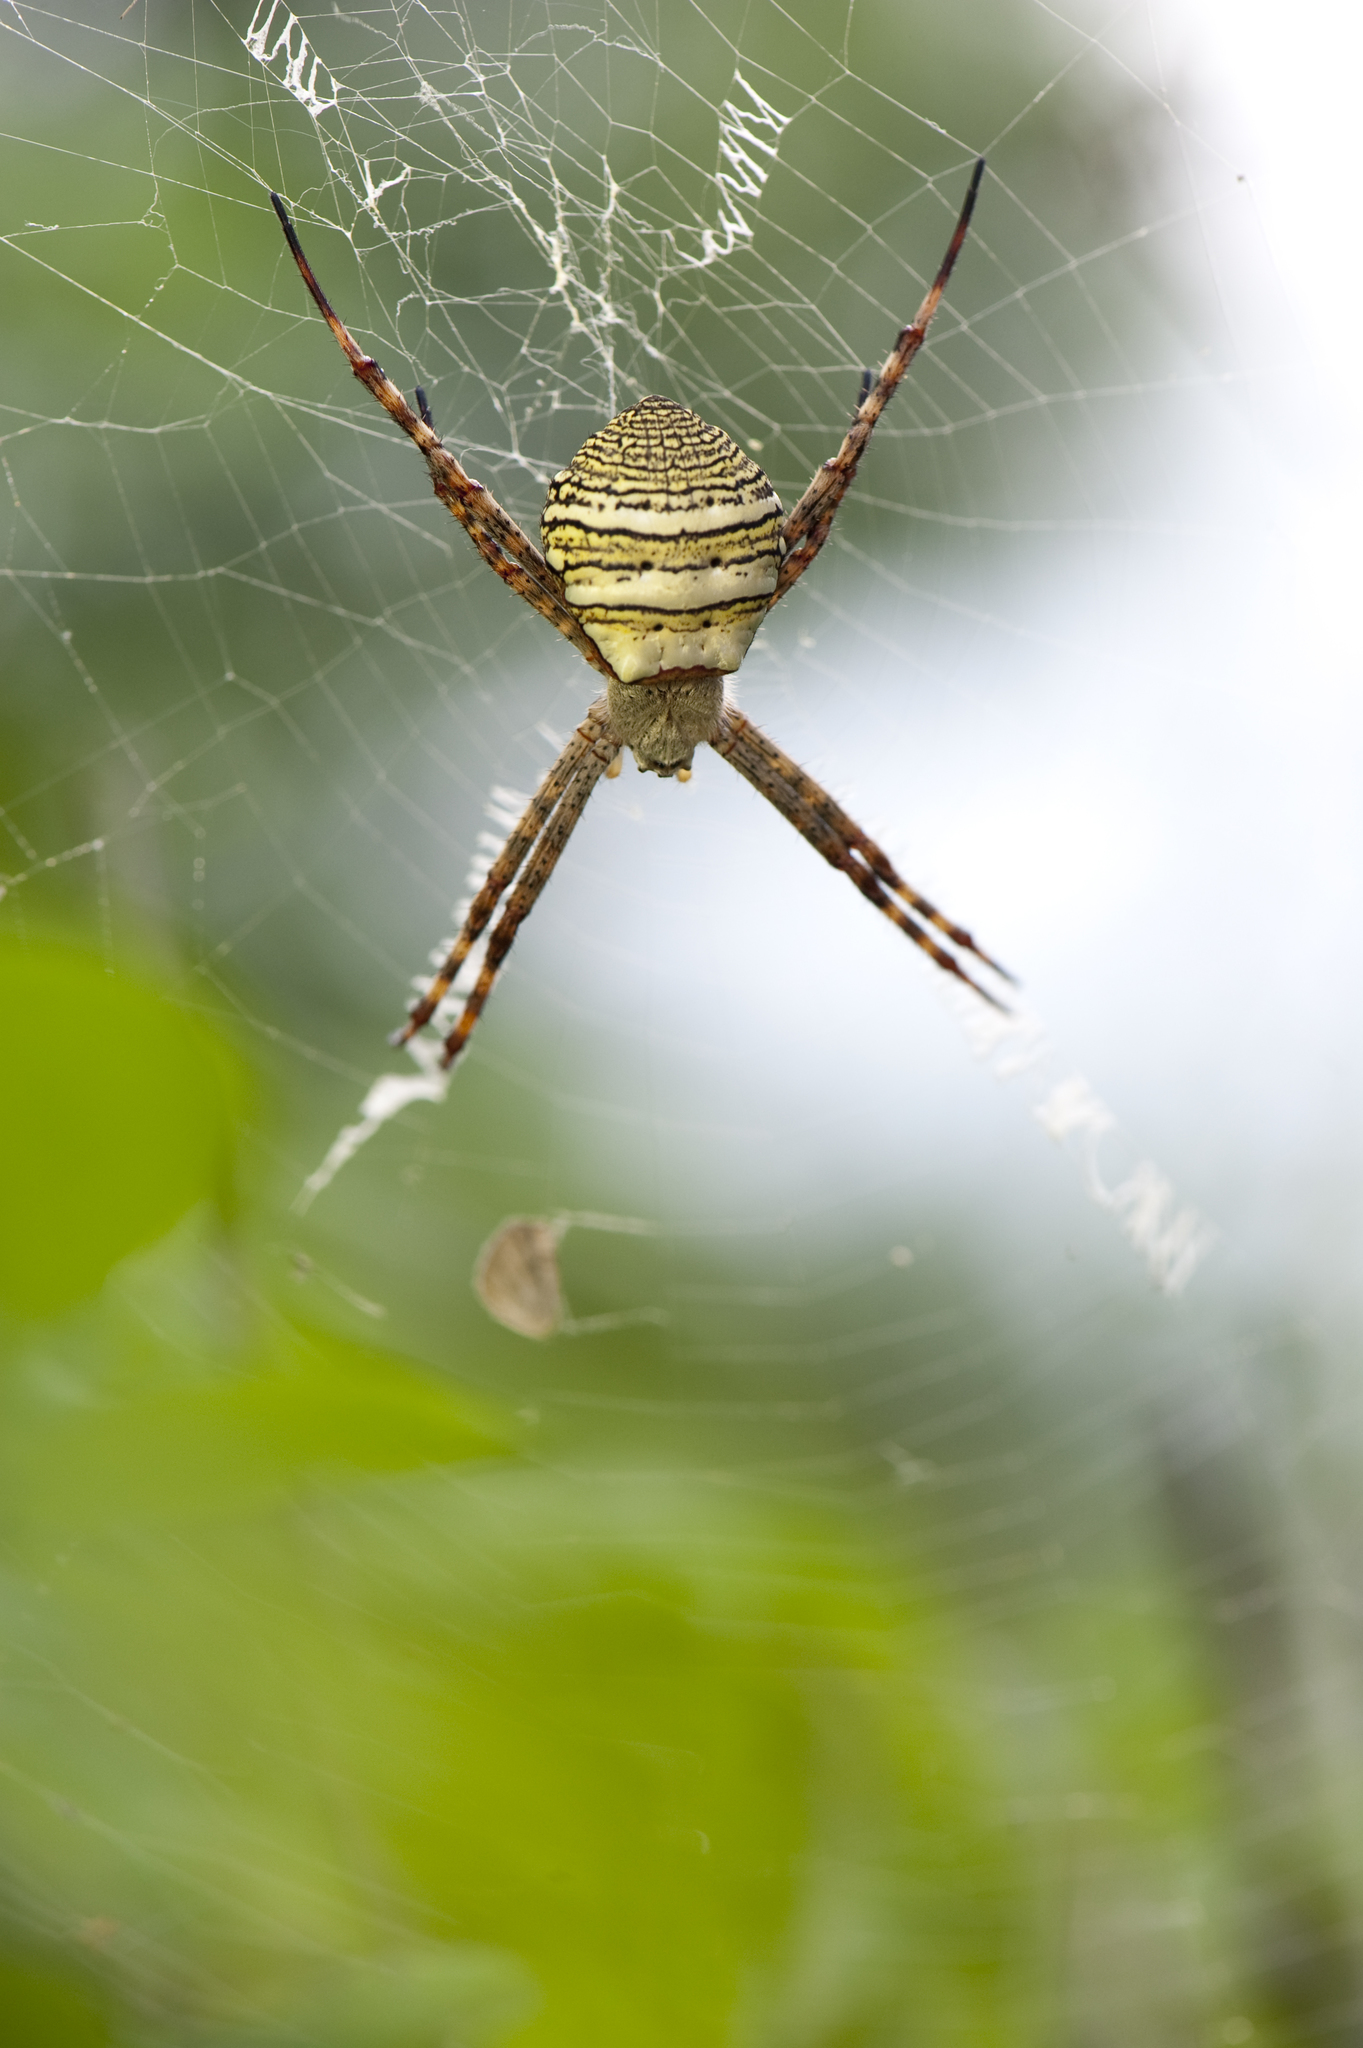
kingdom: Animalia
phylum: Arthropoda
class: Arachnida
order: Araneae
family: Araneidae
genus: Argiope
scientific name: Argiope aemula
